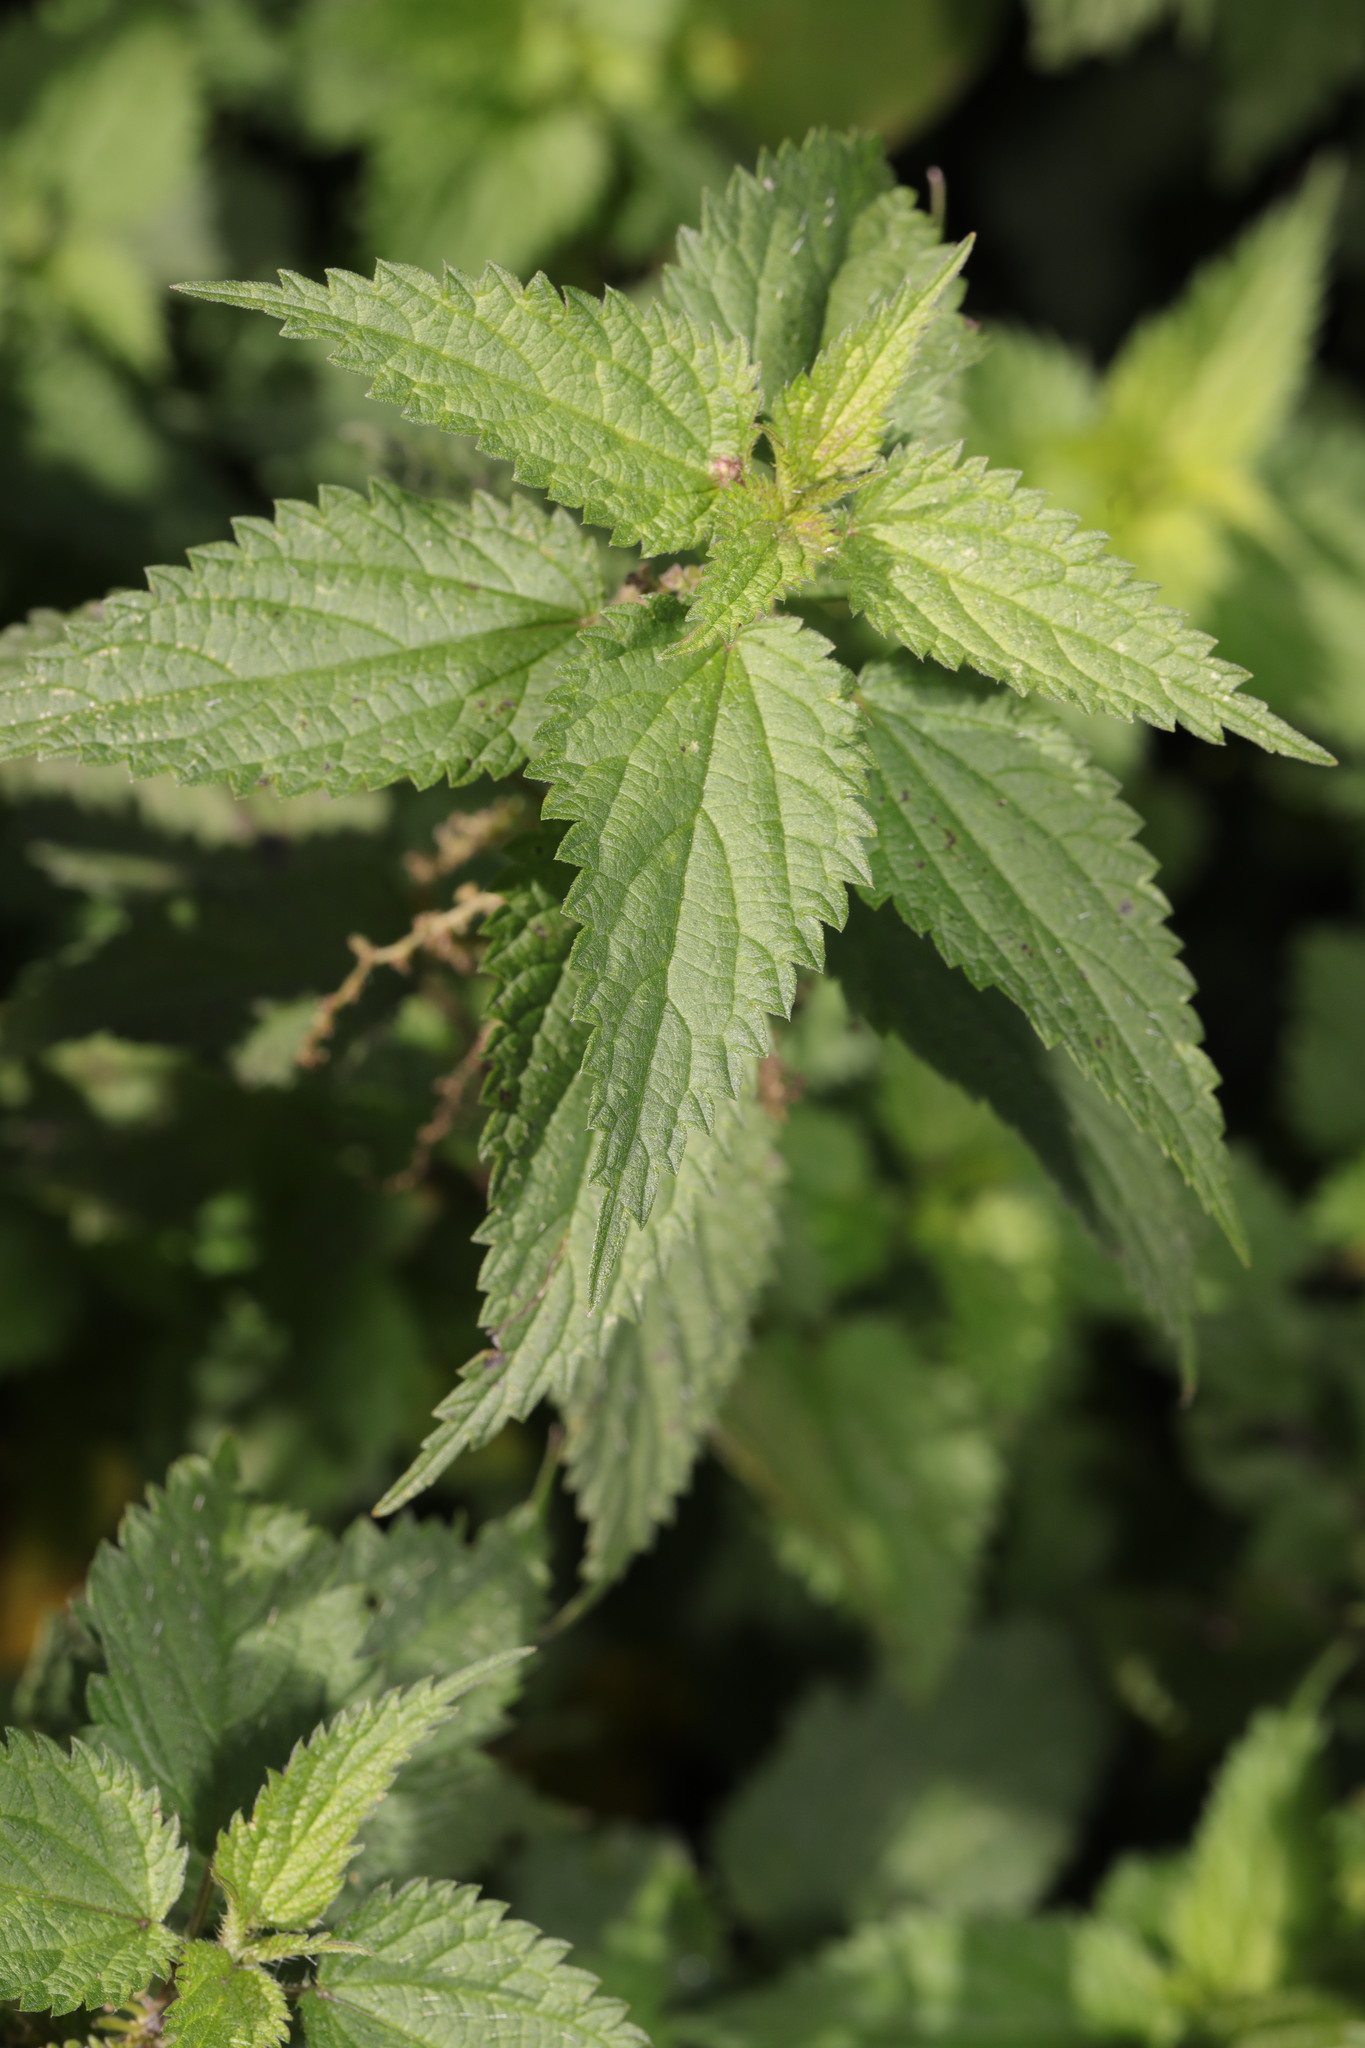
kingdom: Plantae
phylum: Tracheophyta
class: Magnoliopsida
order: Rosales
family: Urticaceae
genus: Urtica
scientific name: Urtica dioica
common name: Common nettle
